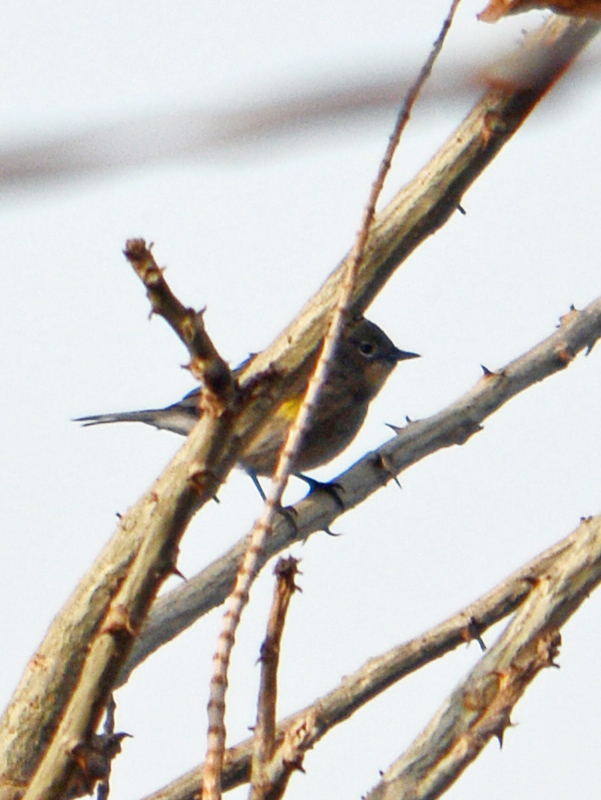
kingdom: Animalia
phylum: Chordata
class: Aves
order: Passeriformes
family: Parulidae
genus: Setophaga
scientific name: Setophaga auduboni
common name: Audubon's warbler
